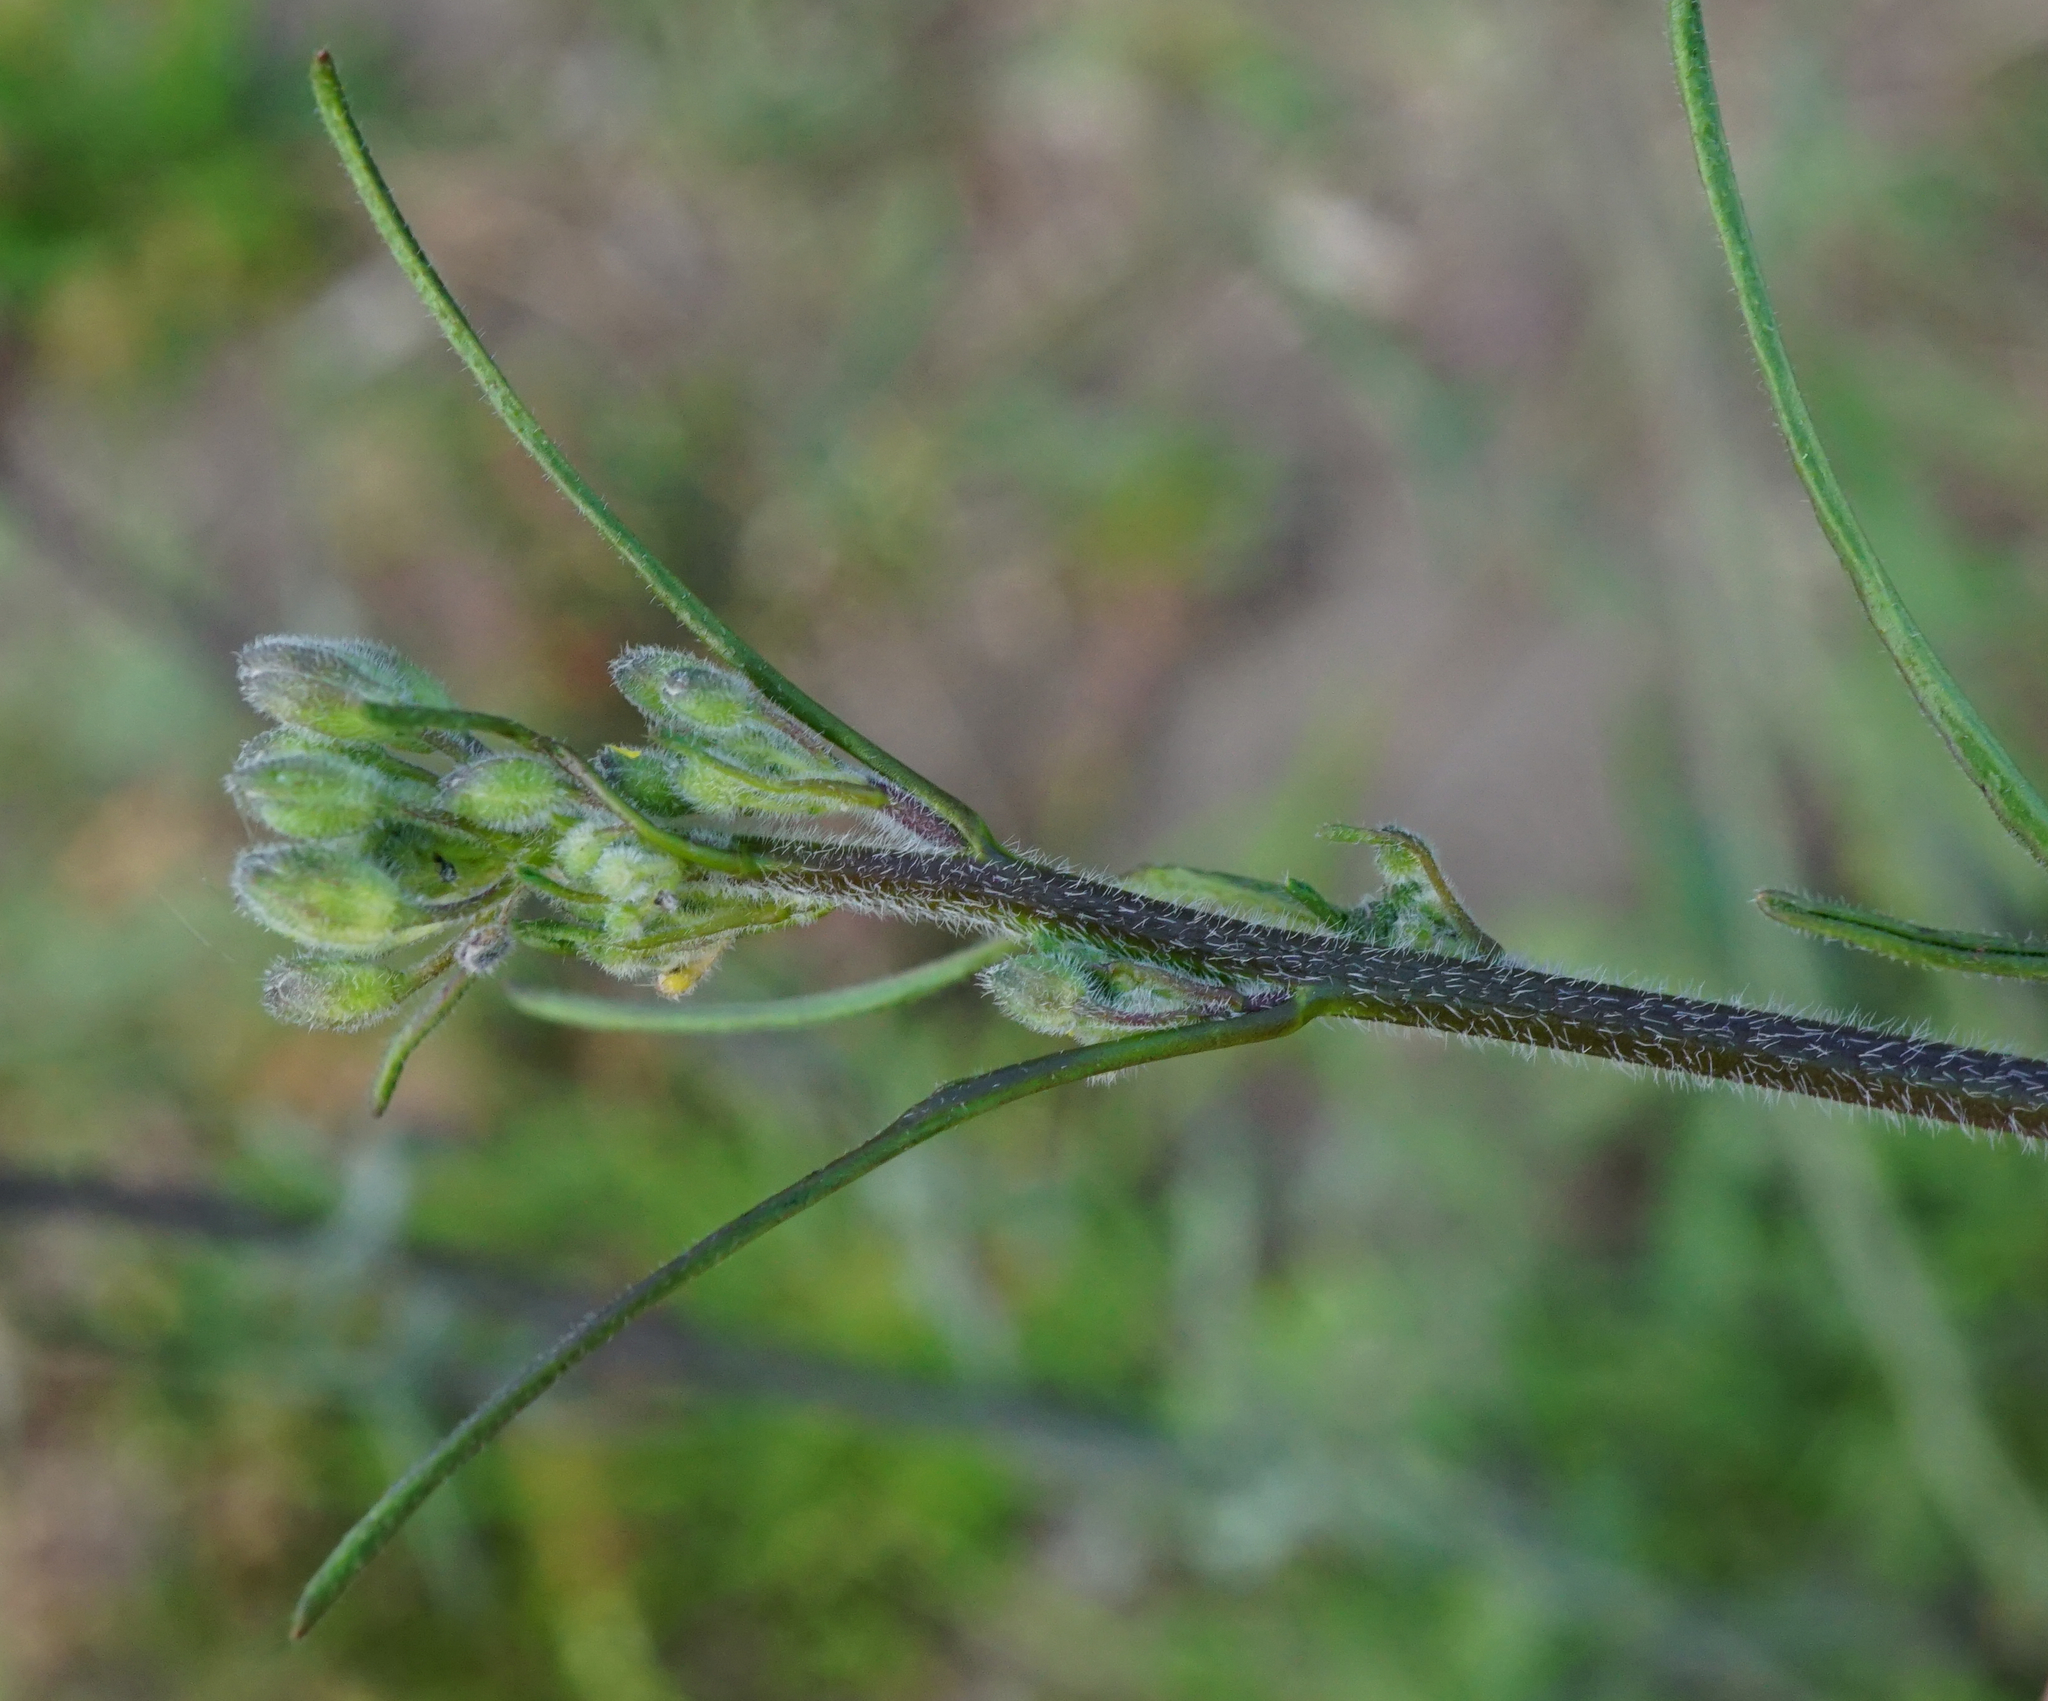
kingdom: Plantae
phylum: Tracheophyta
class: Magnoliopsida
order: Brassicales
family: Brassicaceae
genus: Sisymbrium
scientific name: Sisymbrium orientale
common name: Eastern rocket
